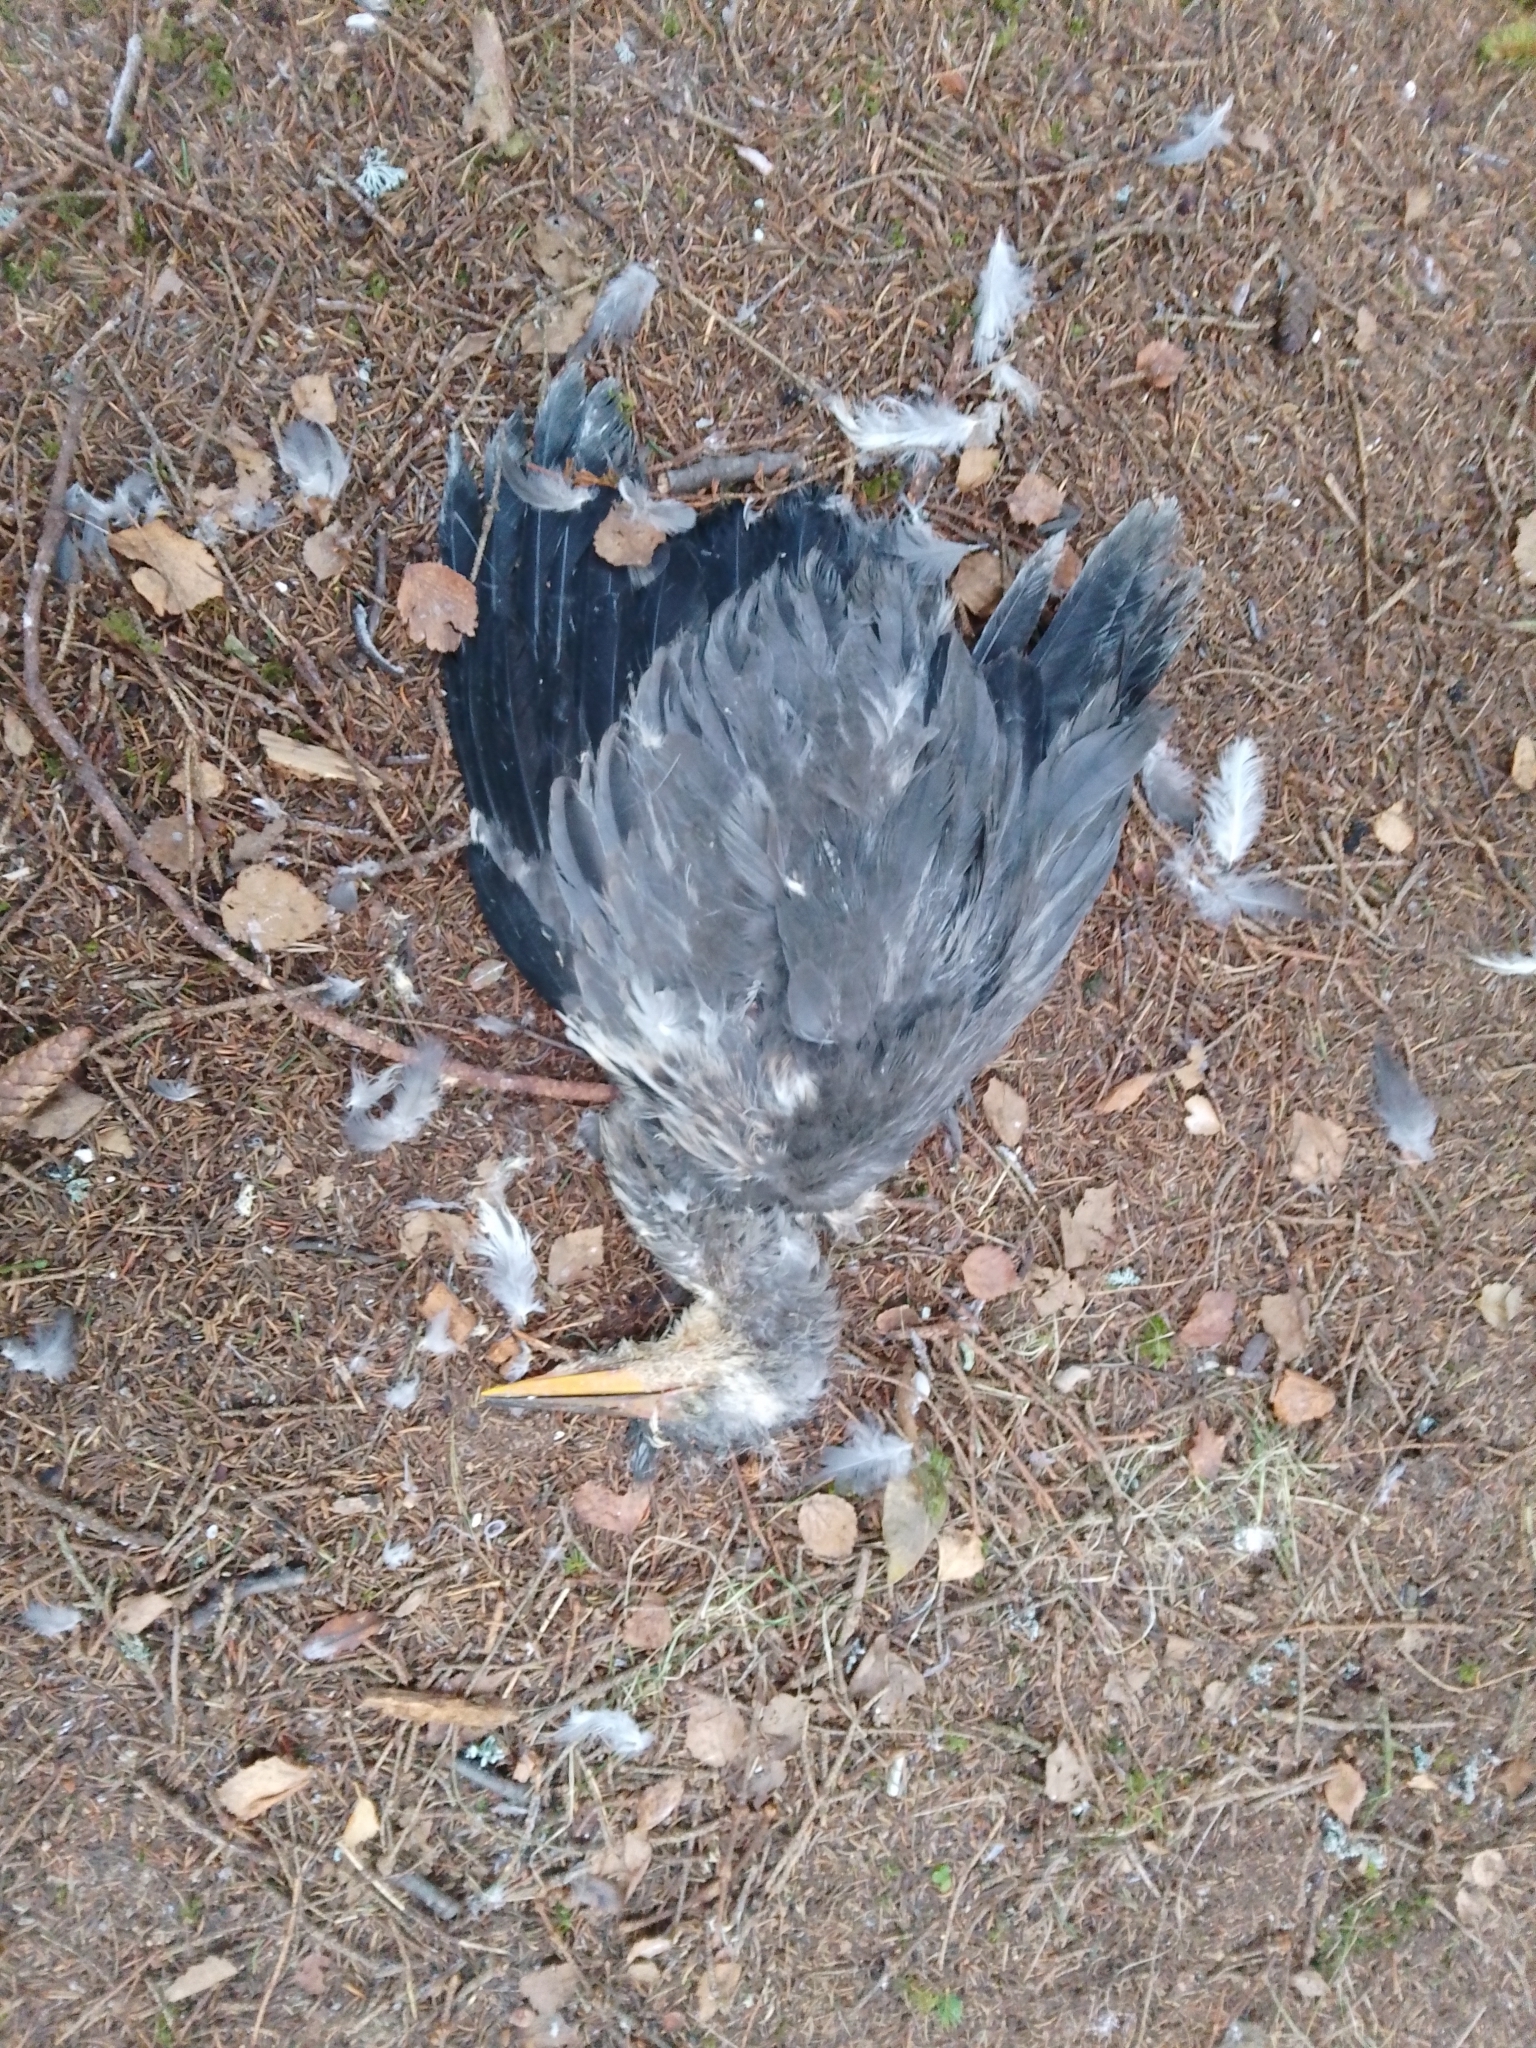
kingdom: Animalia
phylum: Chordata
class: Aves
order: Pelecaniformes
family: Ardeidae
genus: Ardea
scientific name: Ardea cinerea
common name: Grey heron
